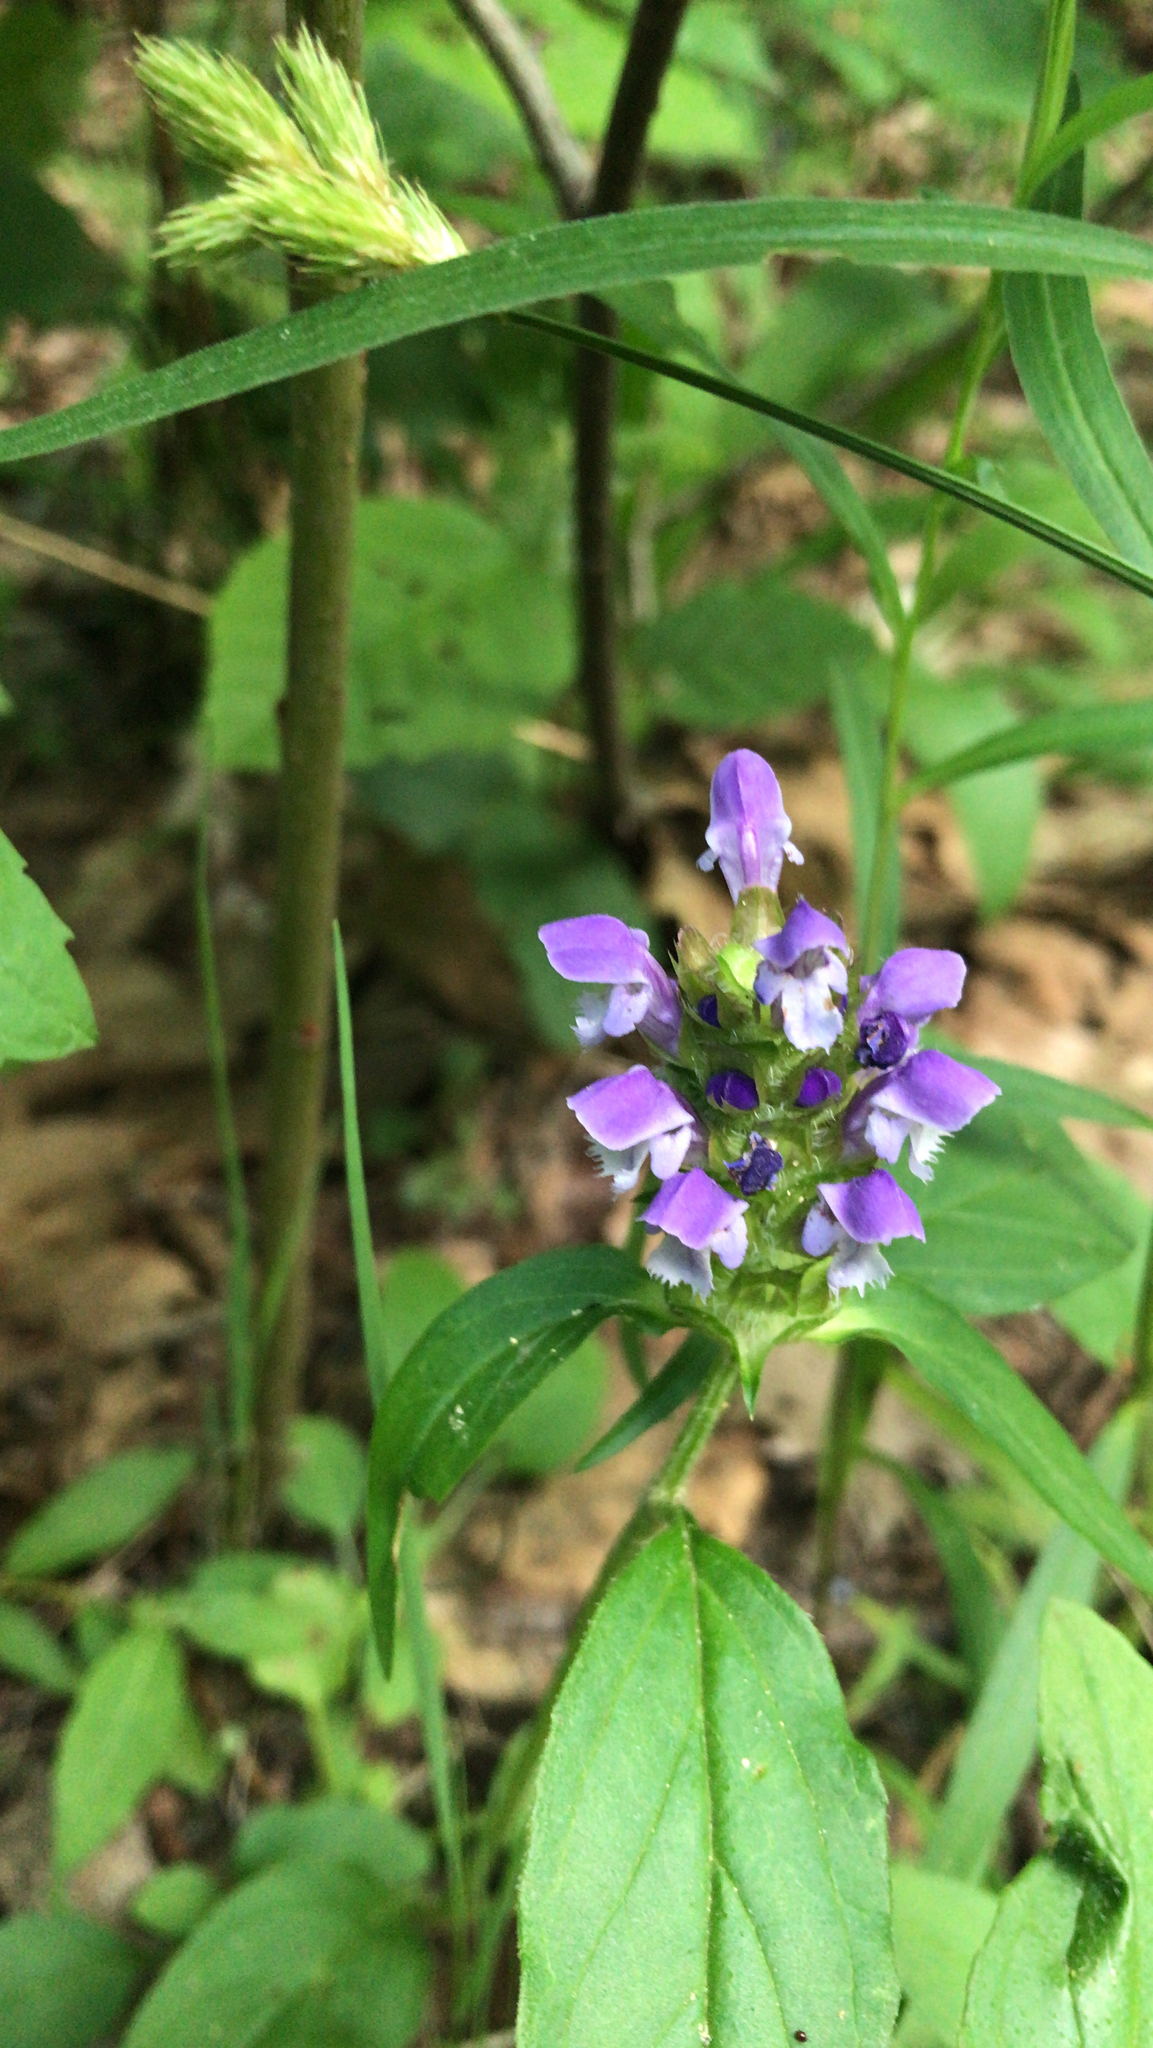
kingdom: Plantae
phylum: Tracheophyta
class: Magnoliopsida
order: Lamiales
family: Lamiaceae
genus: Prunella
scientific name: Prunella vulgaris
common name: Heal-all
